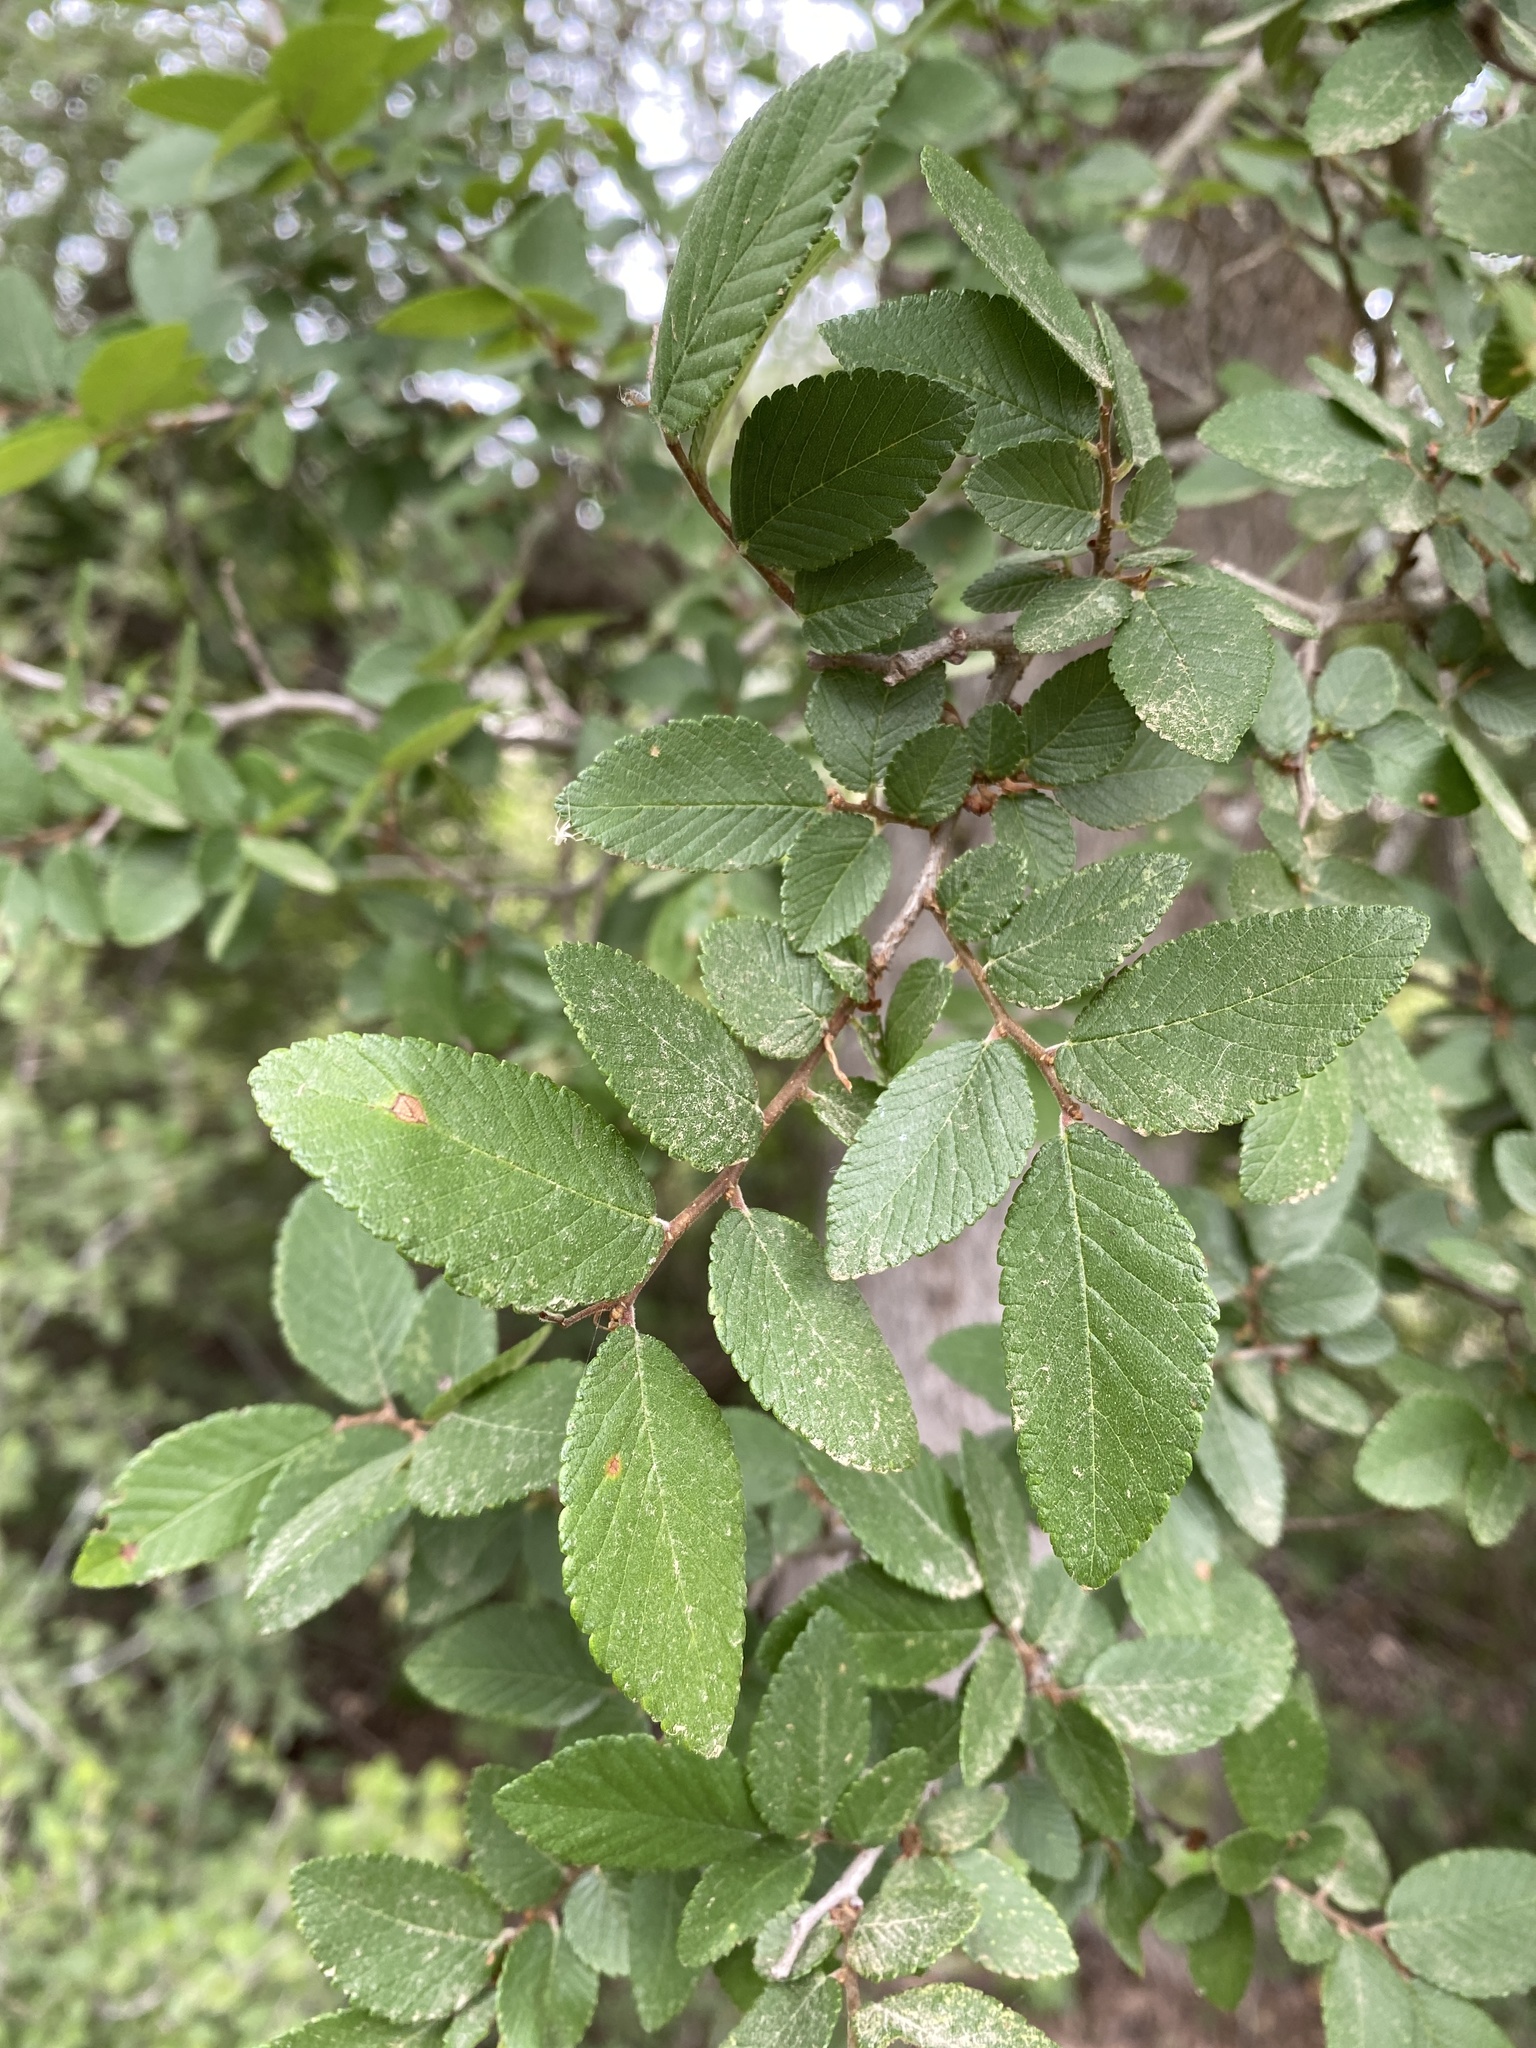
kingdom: Plantae
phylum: Tracheophyta
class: Magnoliopsida
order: Rosales
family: Ulmaceae
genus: Ulmus
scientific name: Ulmus crassifolia
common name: Basket elm
